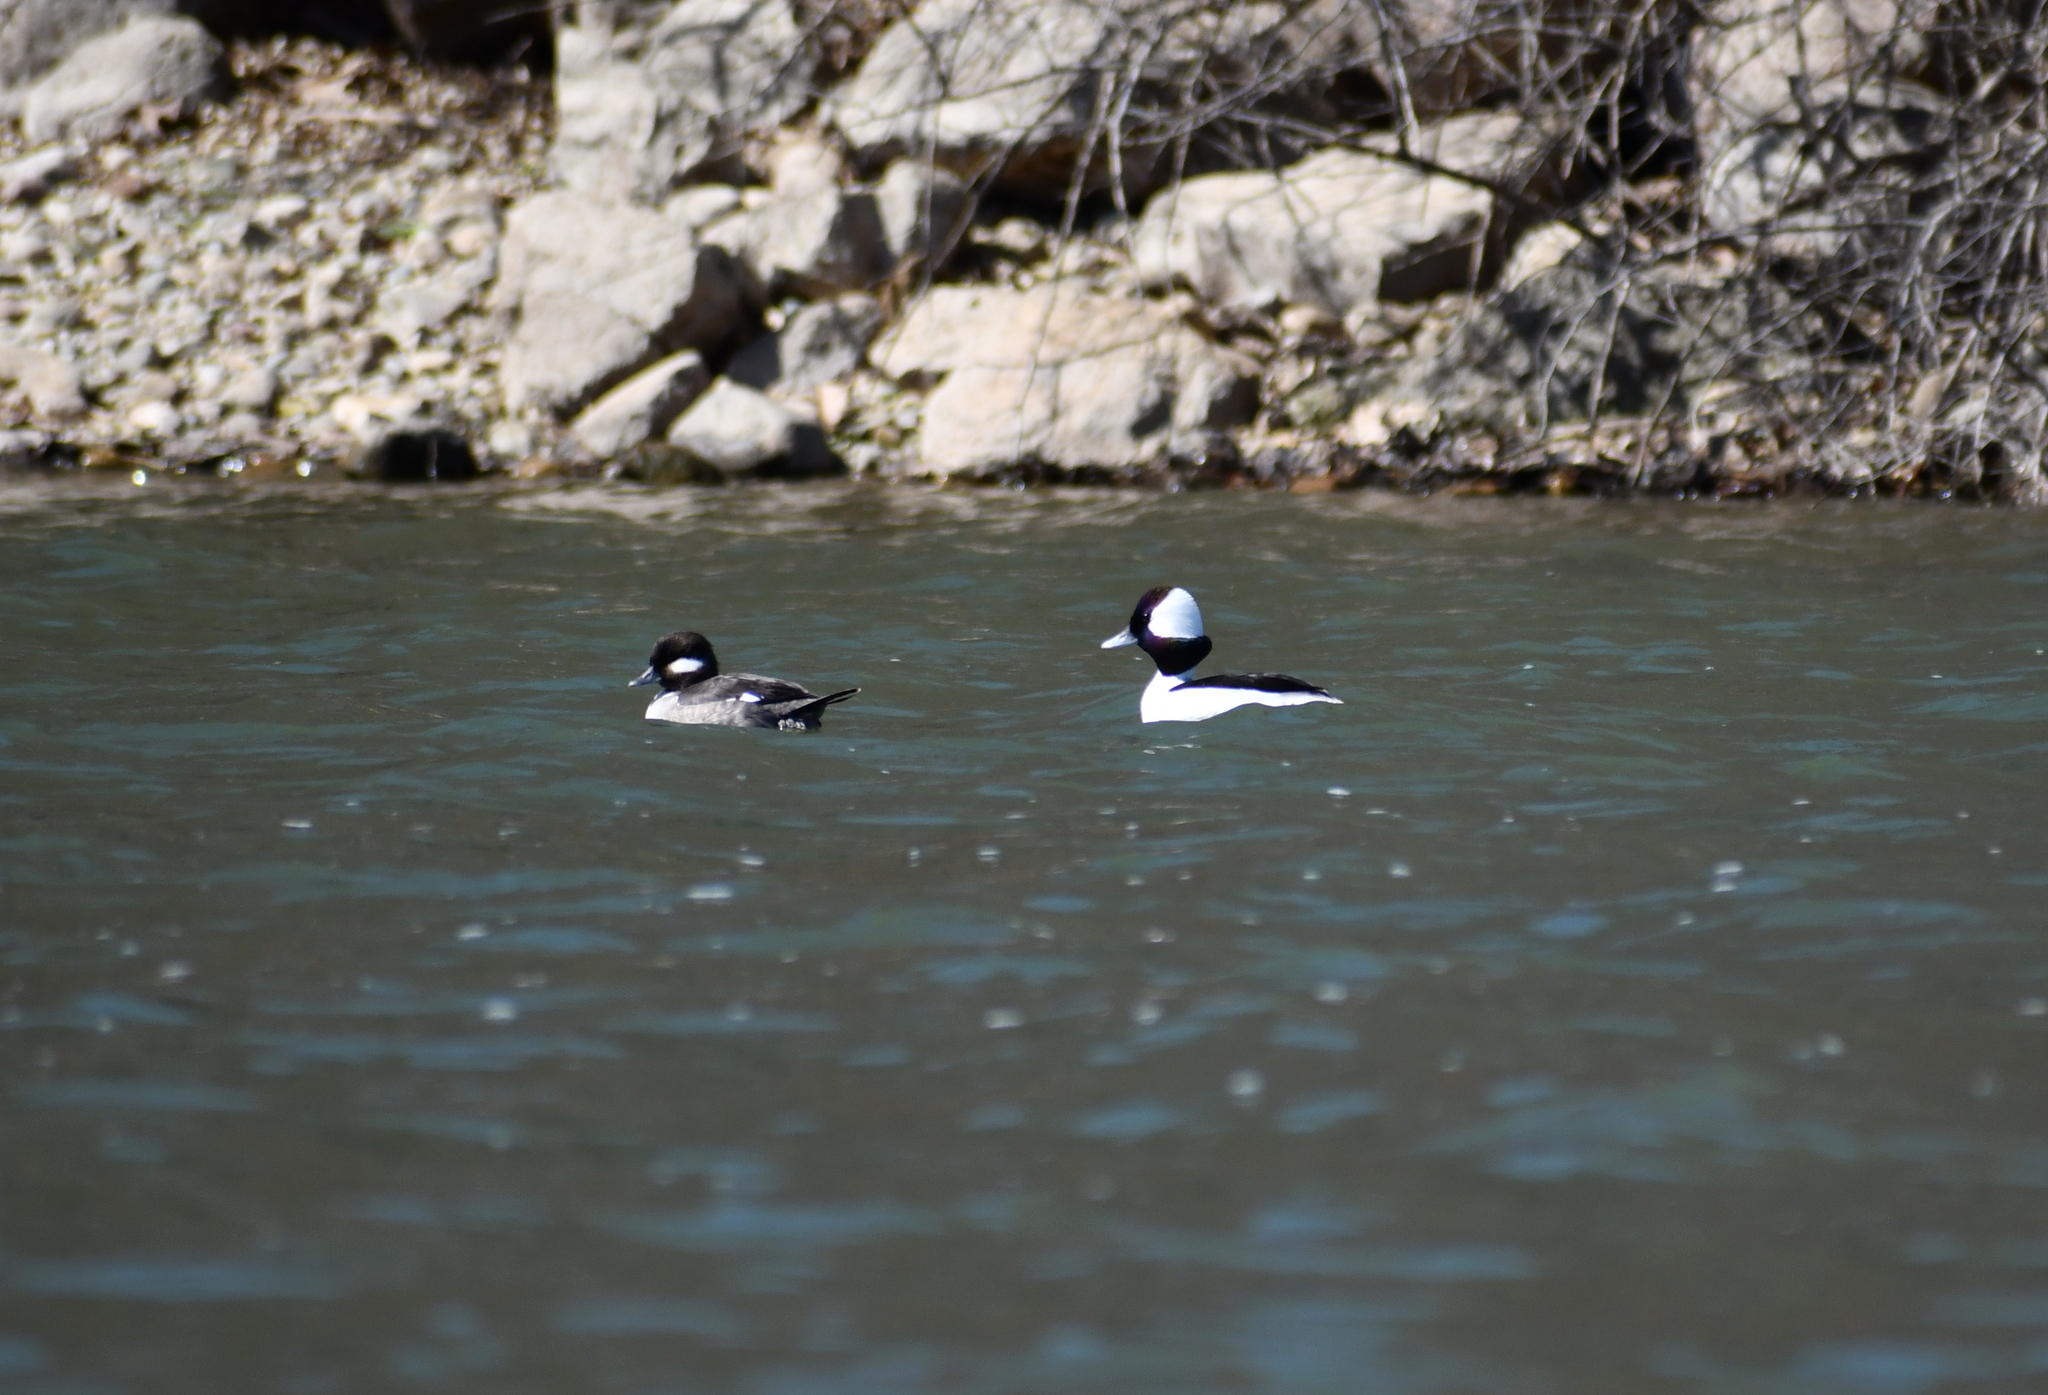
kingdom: Animalia
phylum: Chordata
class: Aves
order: Anseriformes
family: Anatidae
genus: Bucephala
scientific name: Bucephala albeola
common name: Bufflehead
